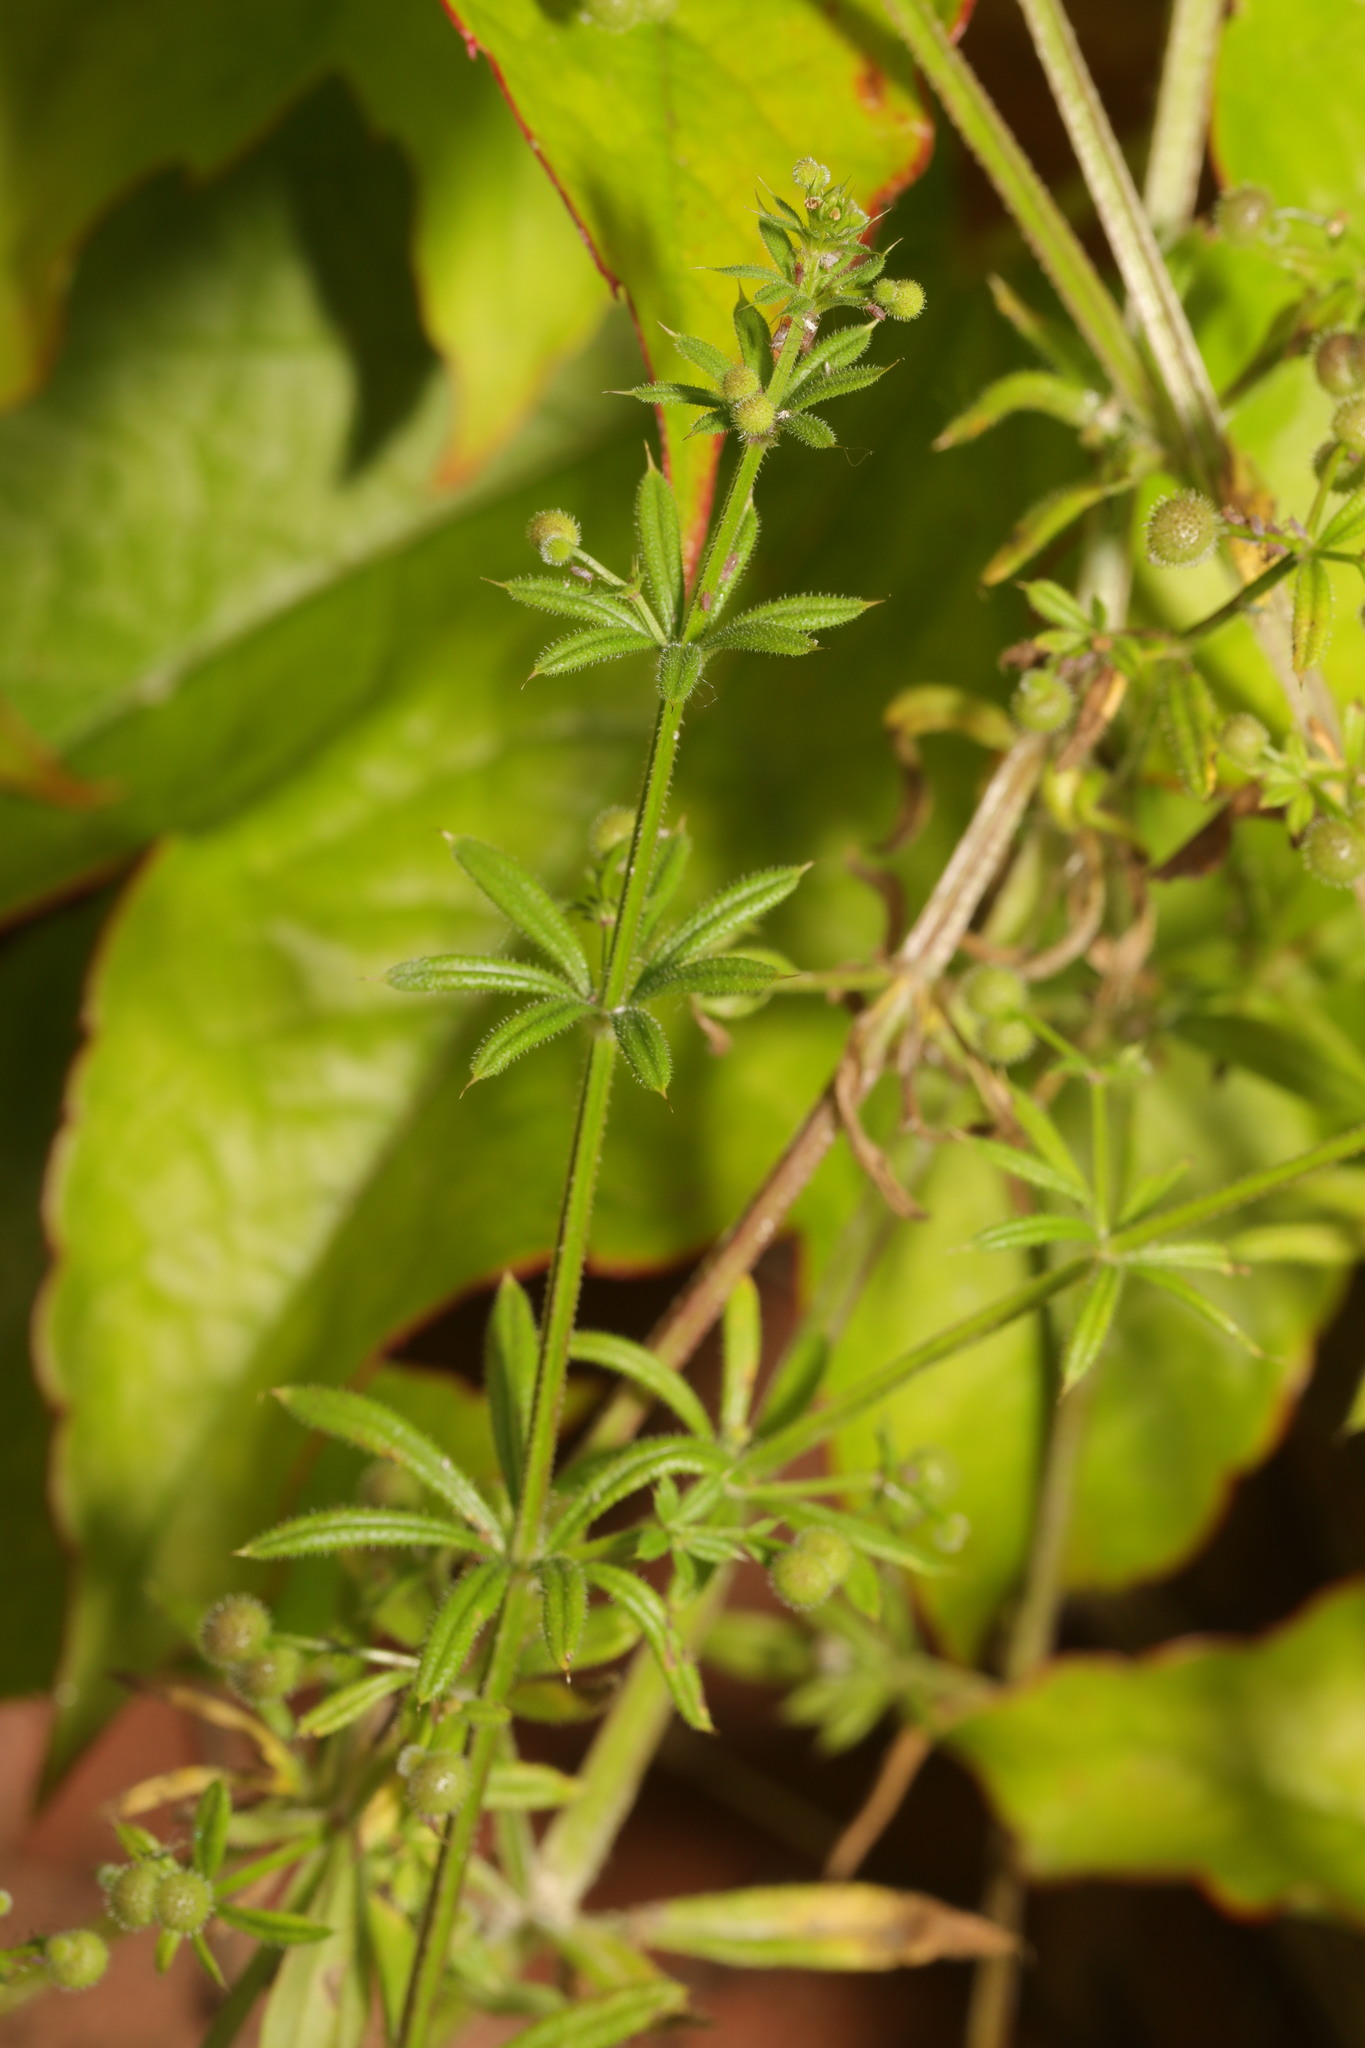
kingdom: Plantae
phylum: Tracheophyta
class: Magnoliopsida
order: Gentianales
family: Rubiaceae
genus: Galium
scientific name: Galium aparine
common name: Cleavers
